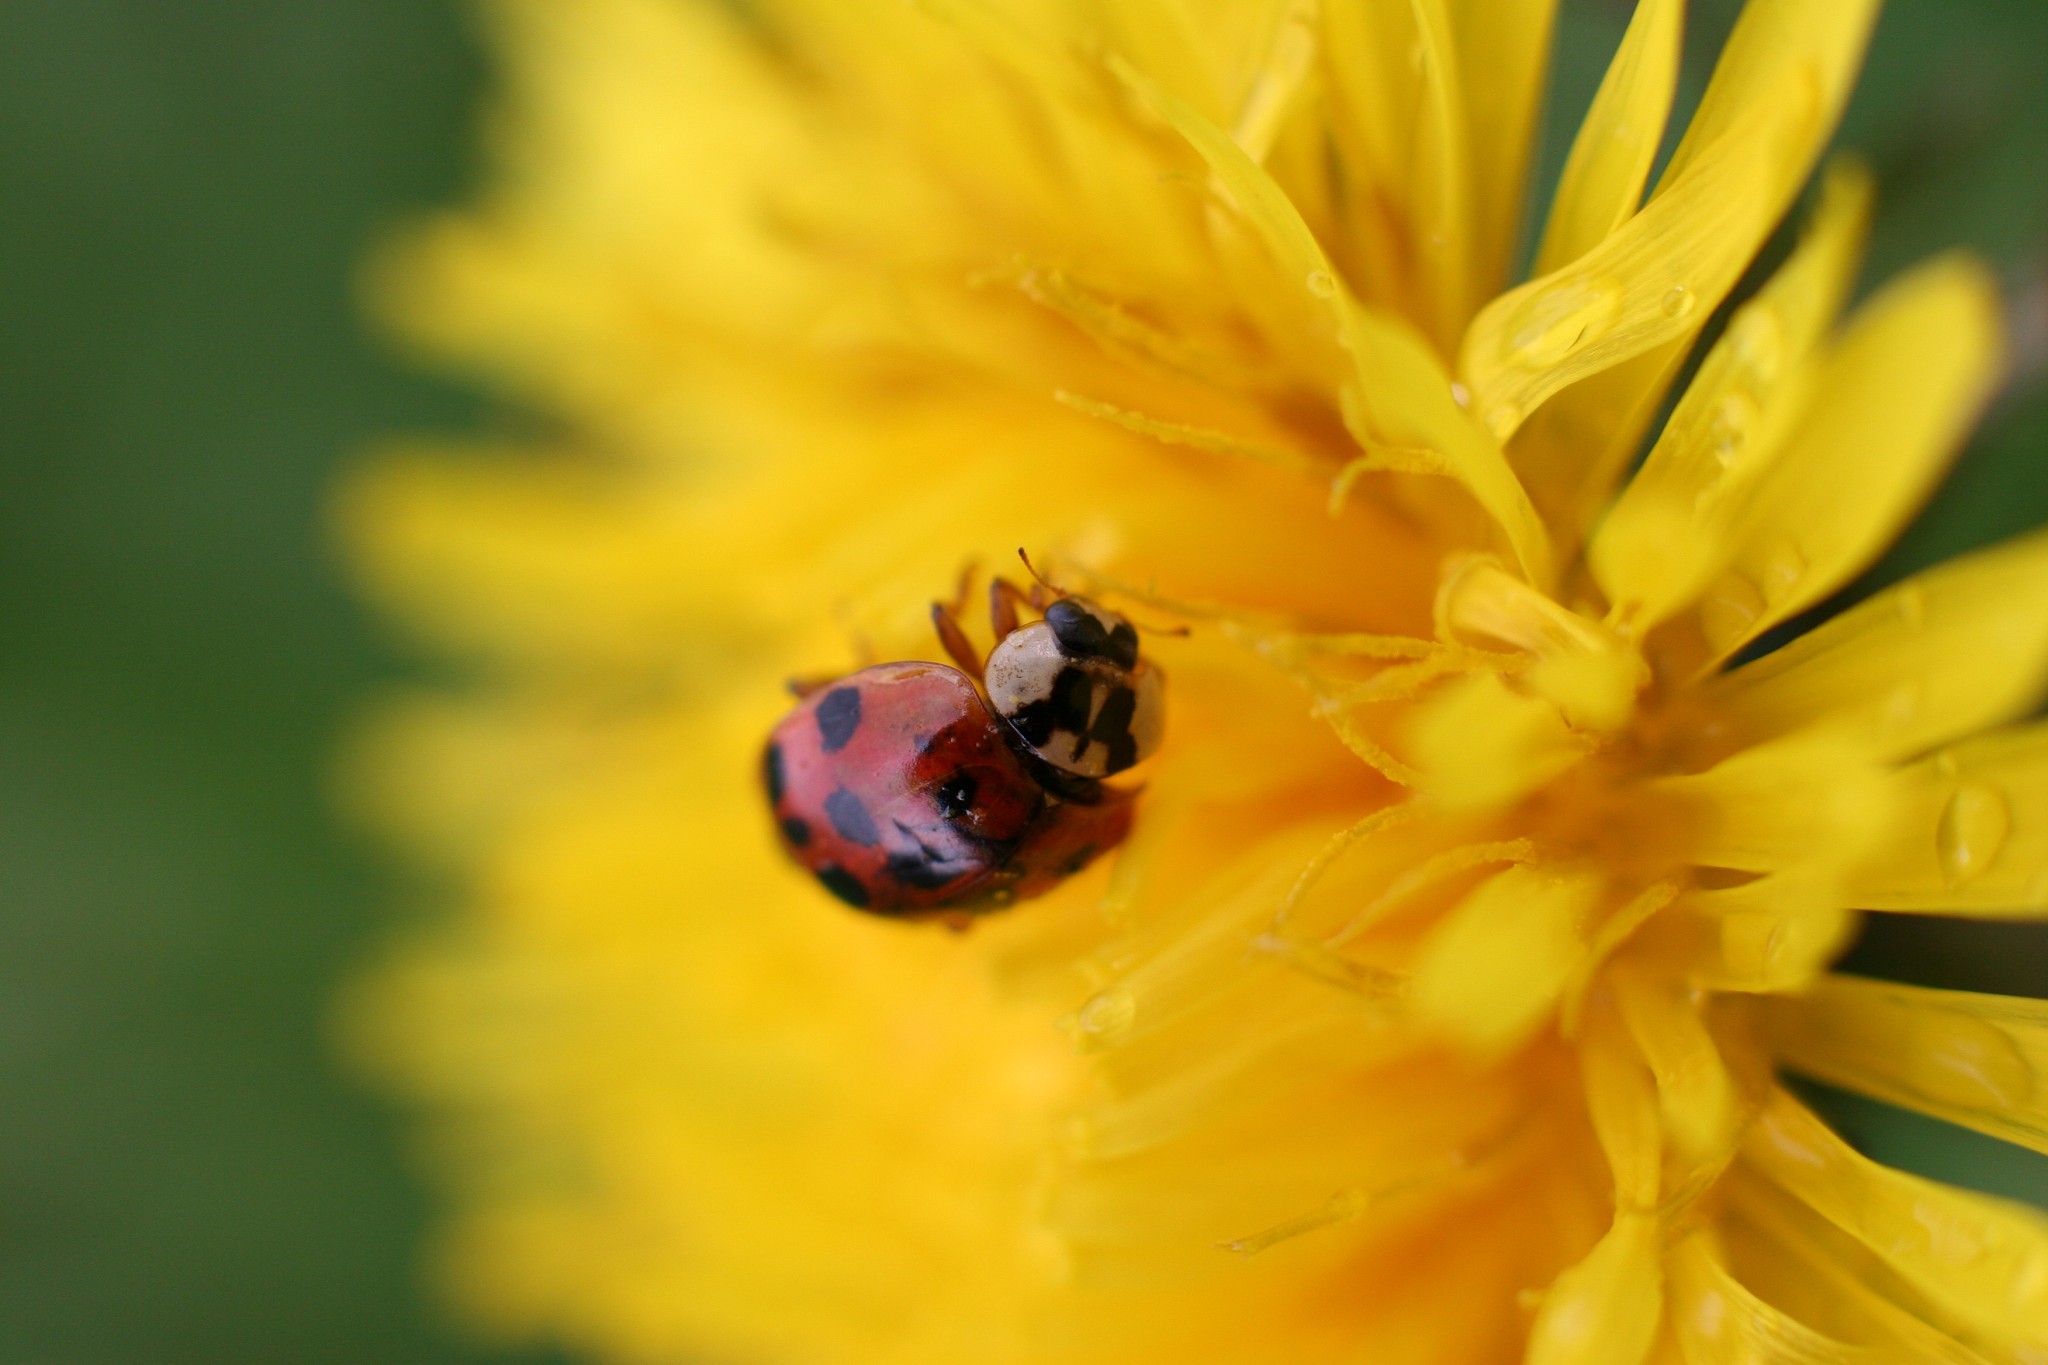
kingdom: Animalia
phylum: Arthropoda
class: Insecta
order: Coleoptera
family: Coccinellidae
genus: Harmonia
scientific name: Harmonia axyridis
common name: Harlequin ladybird
